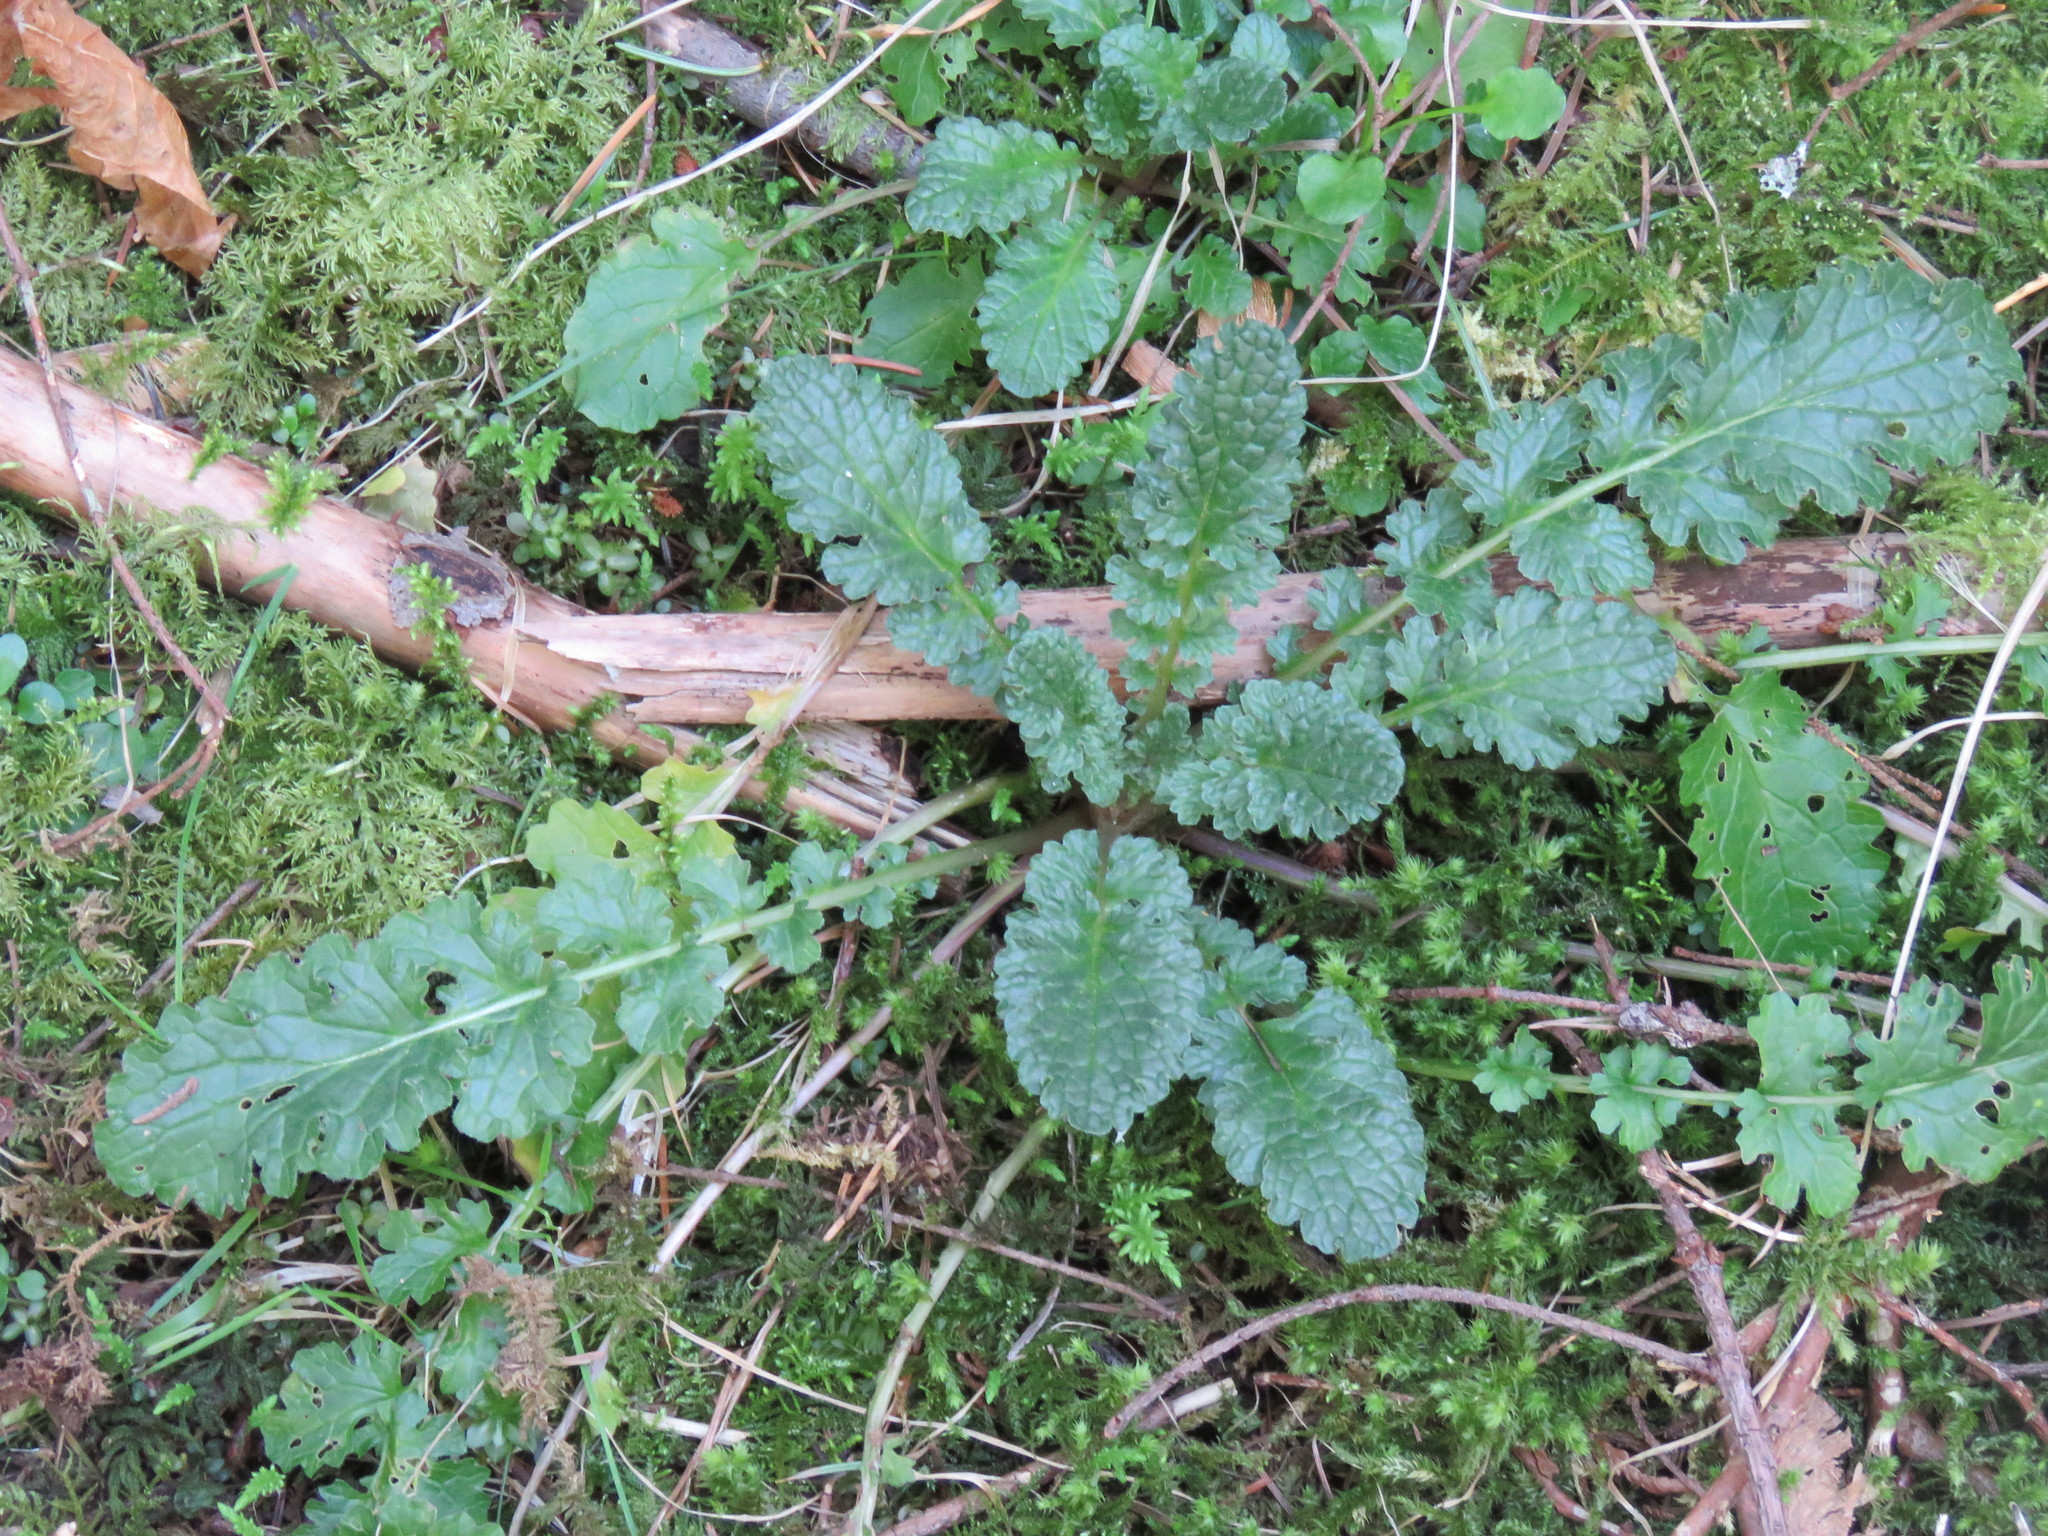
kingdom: Plantae
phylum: Tracheophyta
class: Magnoliopsida
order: Asterales
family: Asteraceae
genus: Jacobaea
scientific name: Jacobaea vulgaris
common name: Stinking willie
